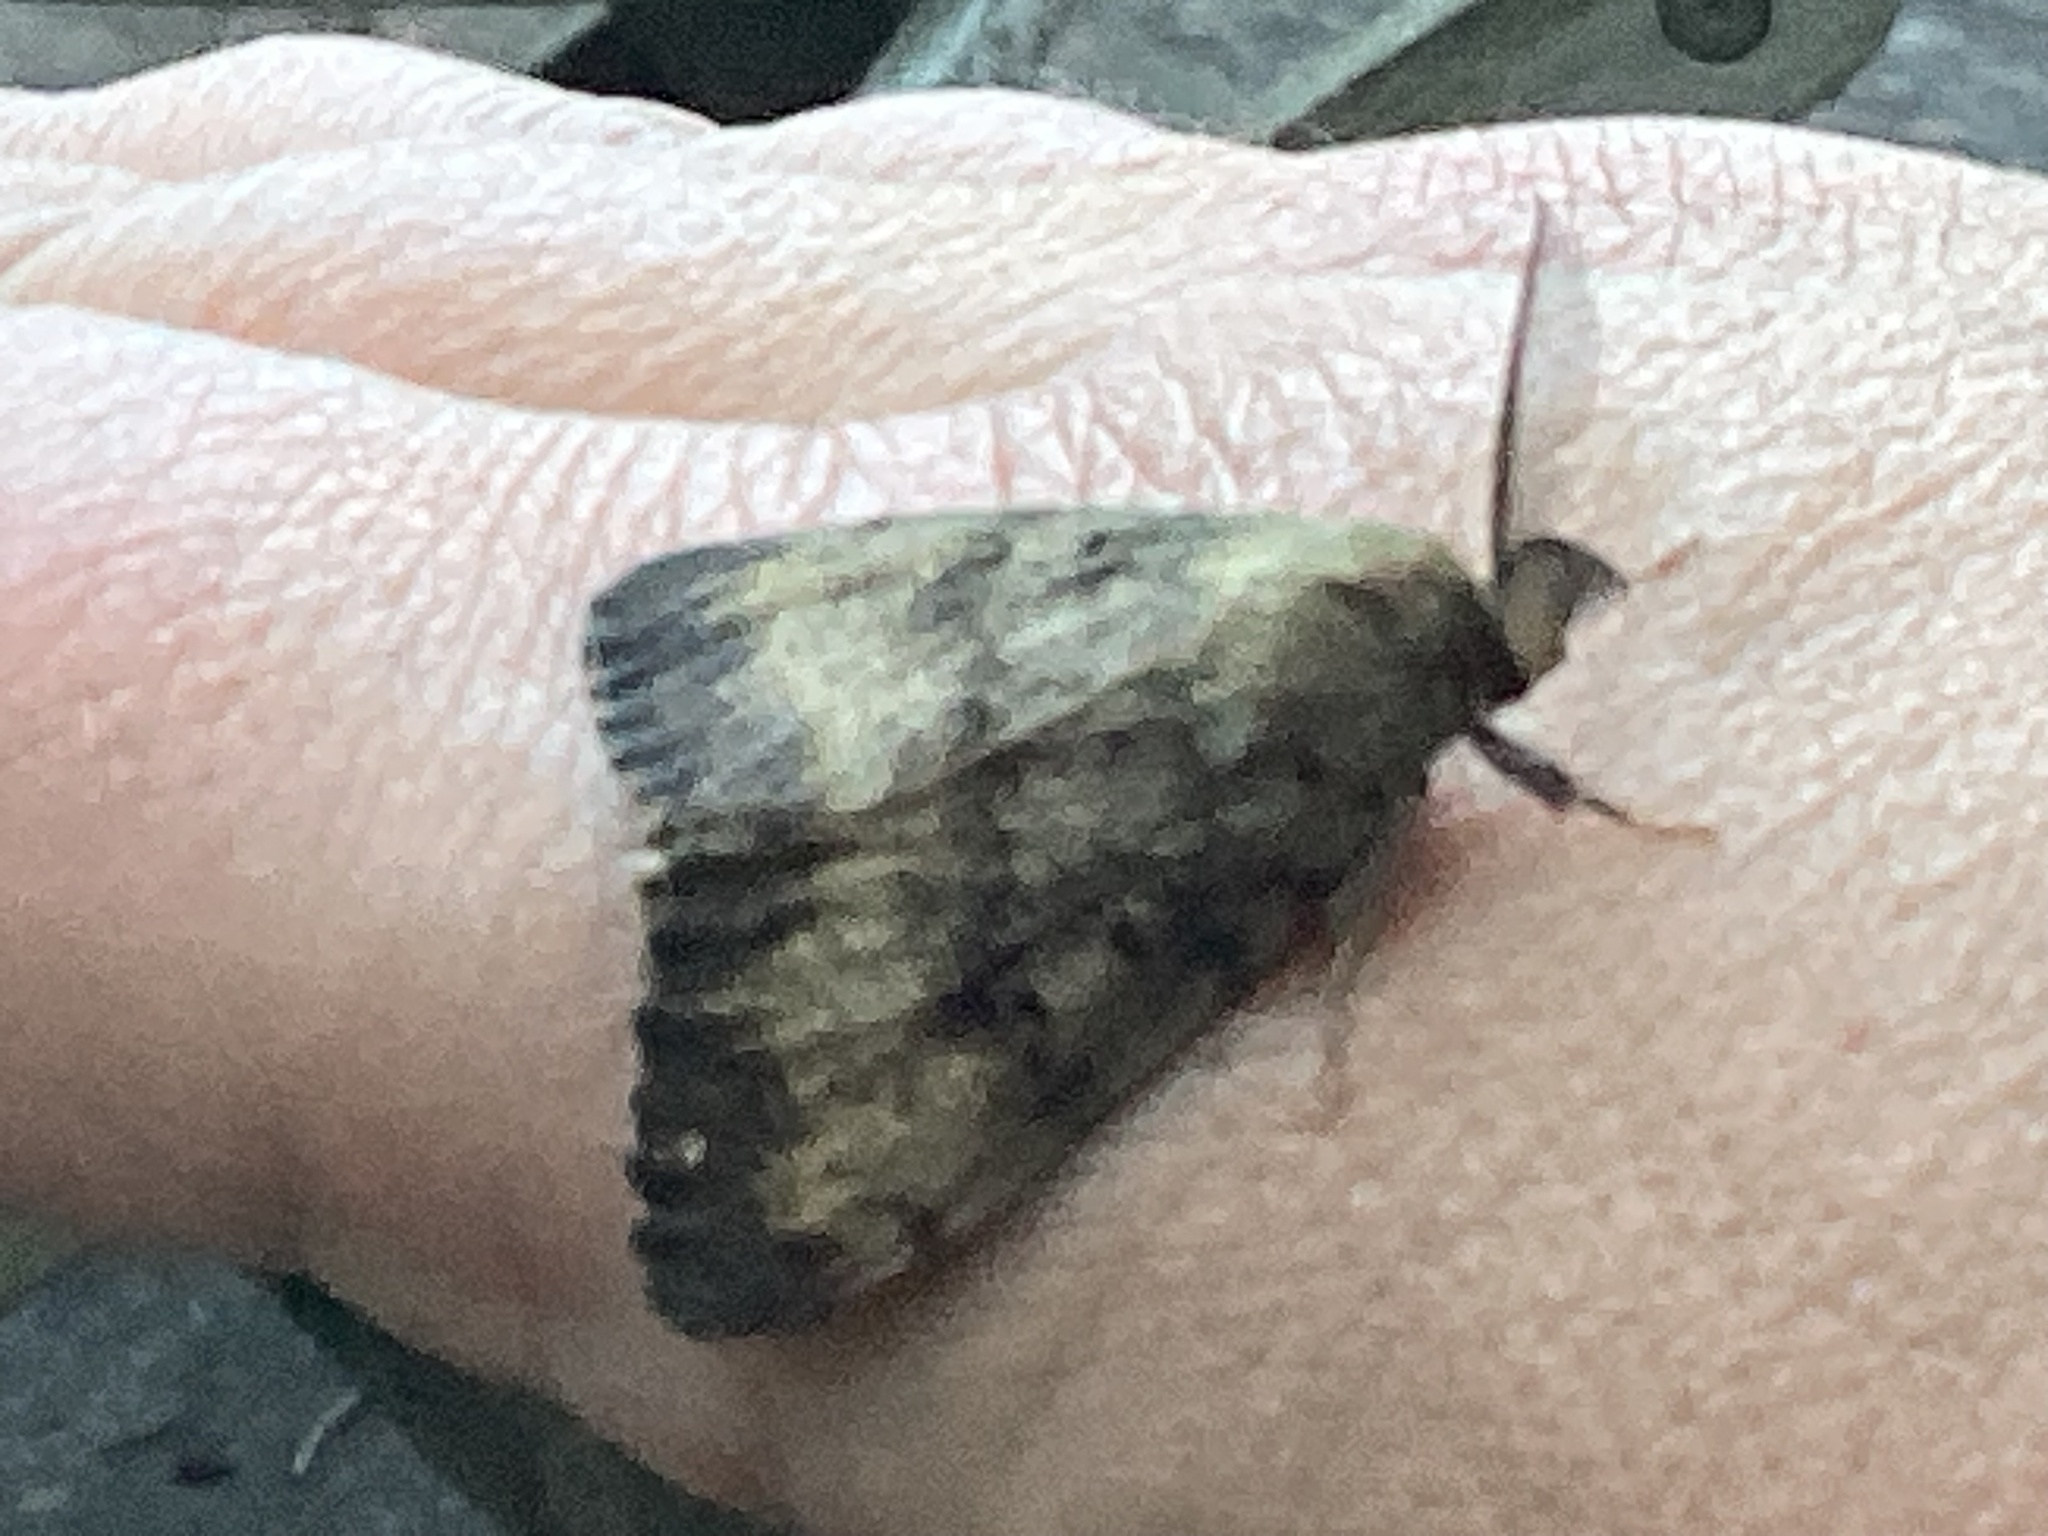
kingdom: Animalia
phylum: Arthropoda
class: Insecta
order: Lepidoptera
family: Erebidae
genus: Lymantria
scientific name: Lymantria dispar
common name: Gypsy moth
